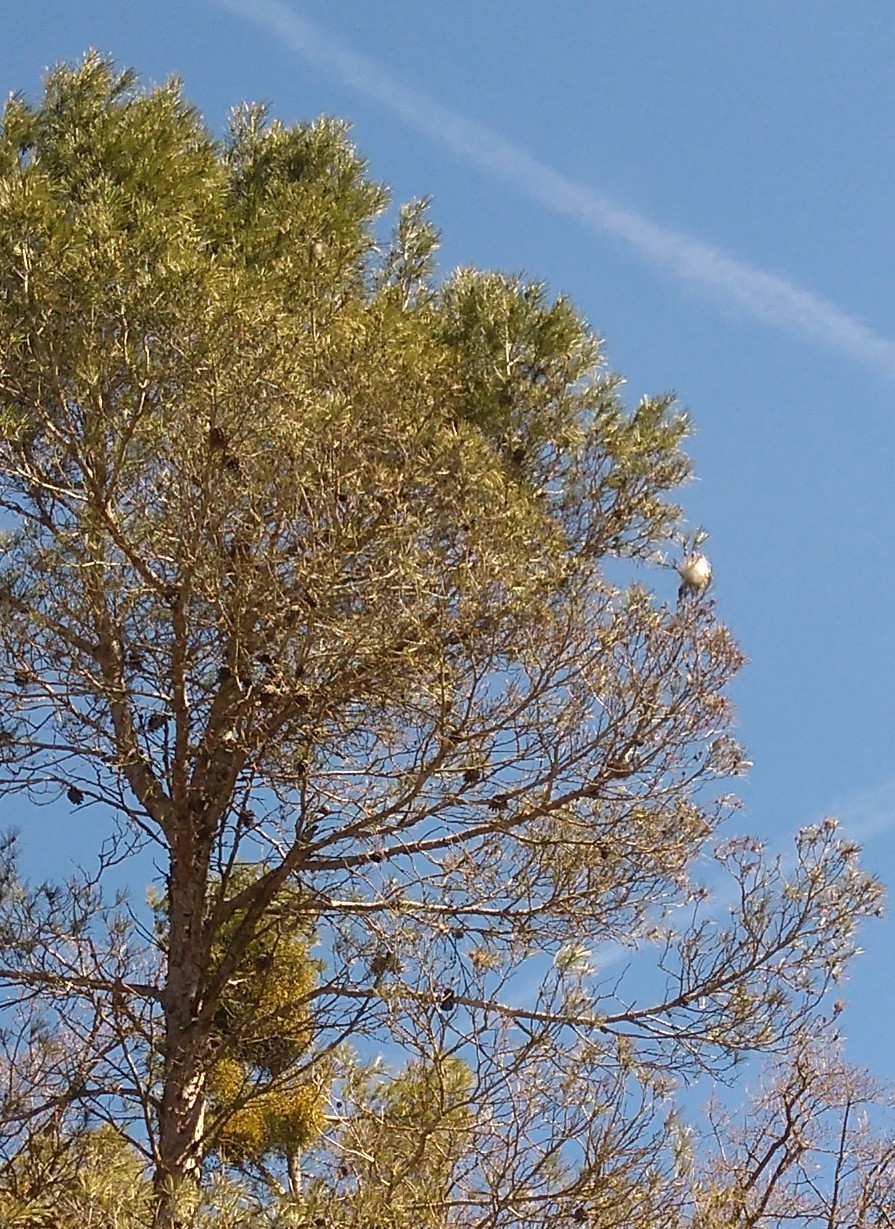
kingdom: Animalia
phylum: Arthropoda
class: Insecta
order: Lepidoptera
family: Notodontidae
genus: Thaumetopoea
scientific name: Thaumetopoea pityocampa
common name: Pine processionary
